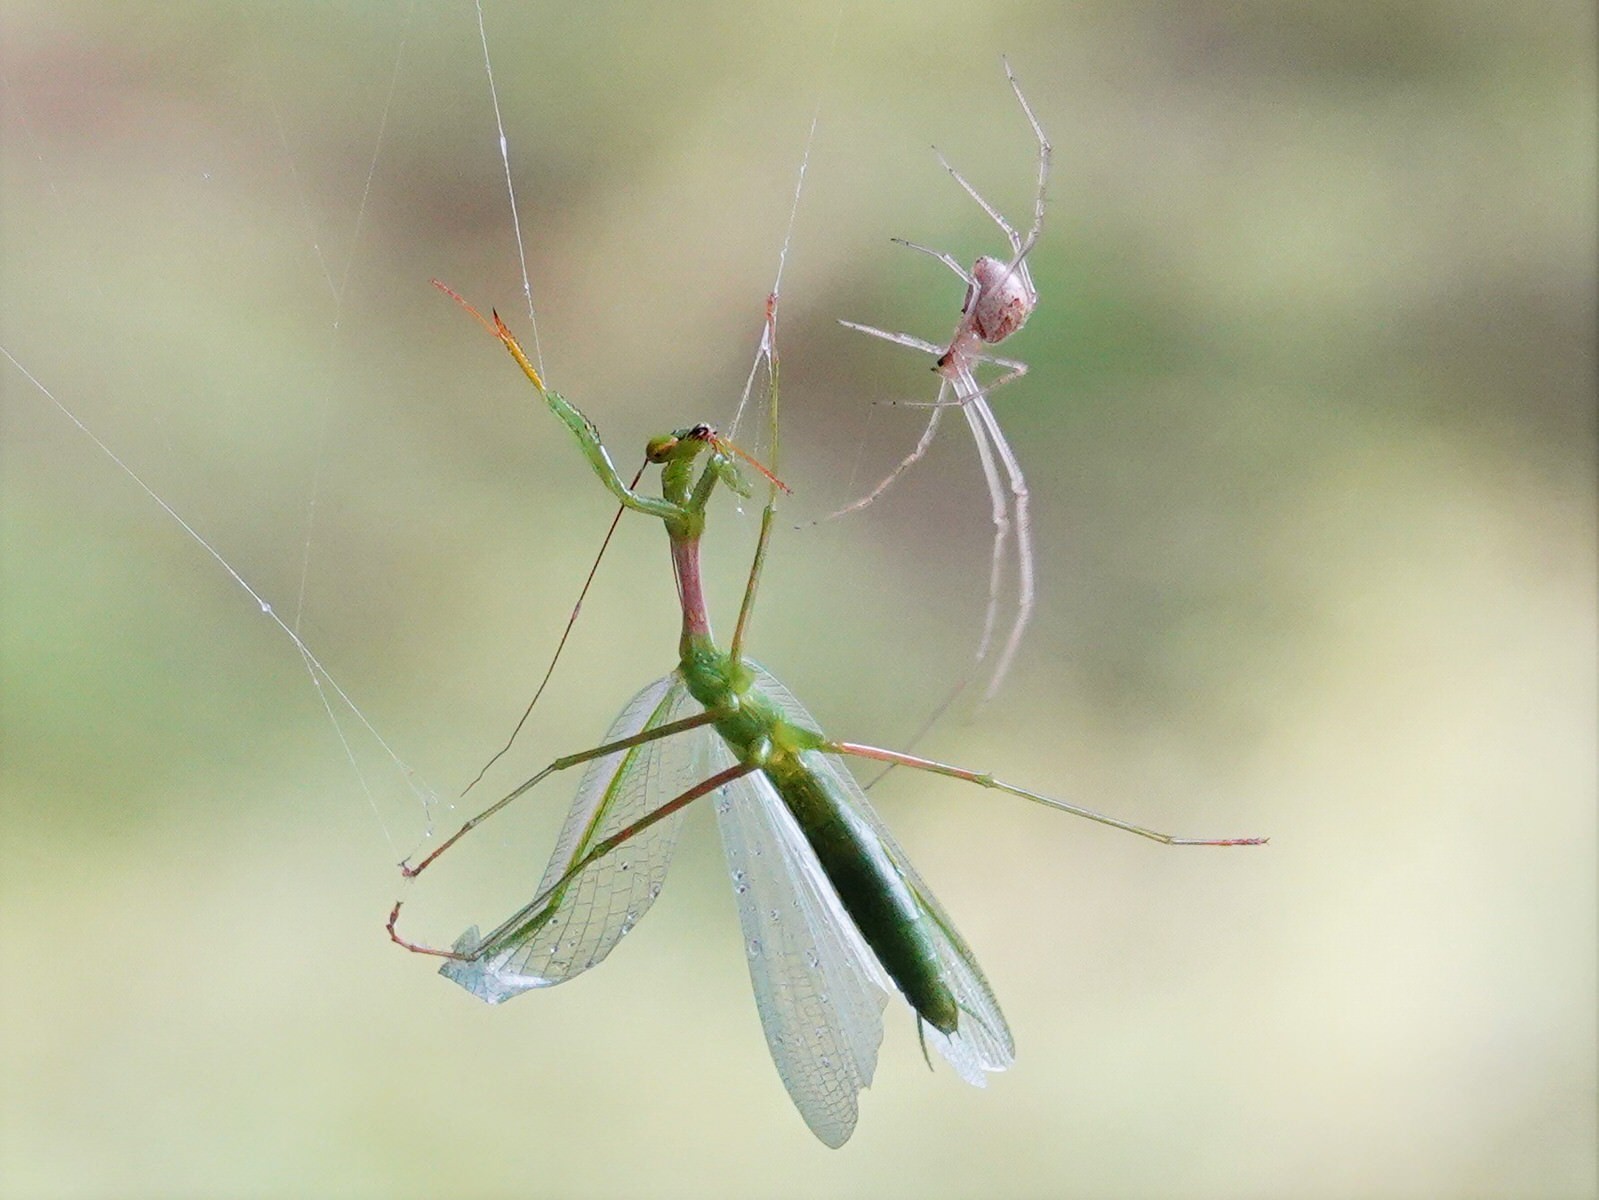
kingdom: Animalia
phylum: Arthropoda
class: Insecta
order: Mantodea
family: Miomantidae
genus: Miomantis
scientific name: Miomantis caffra
